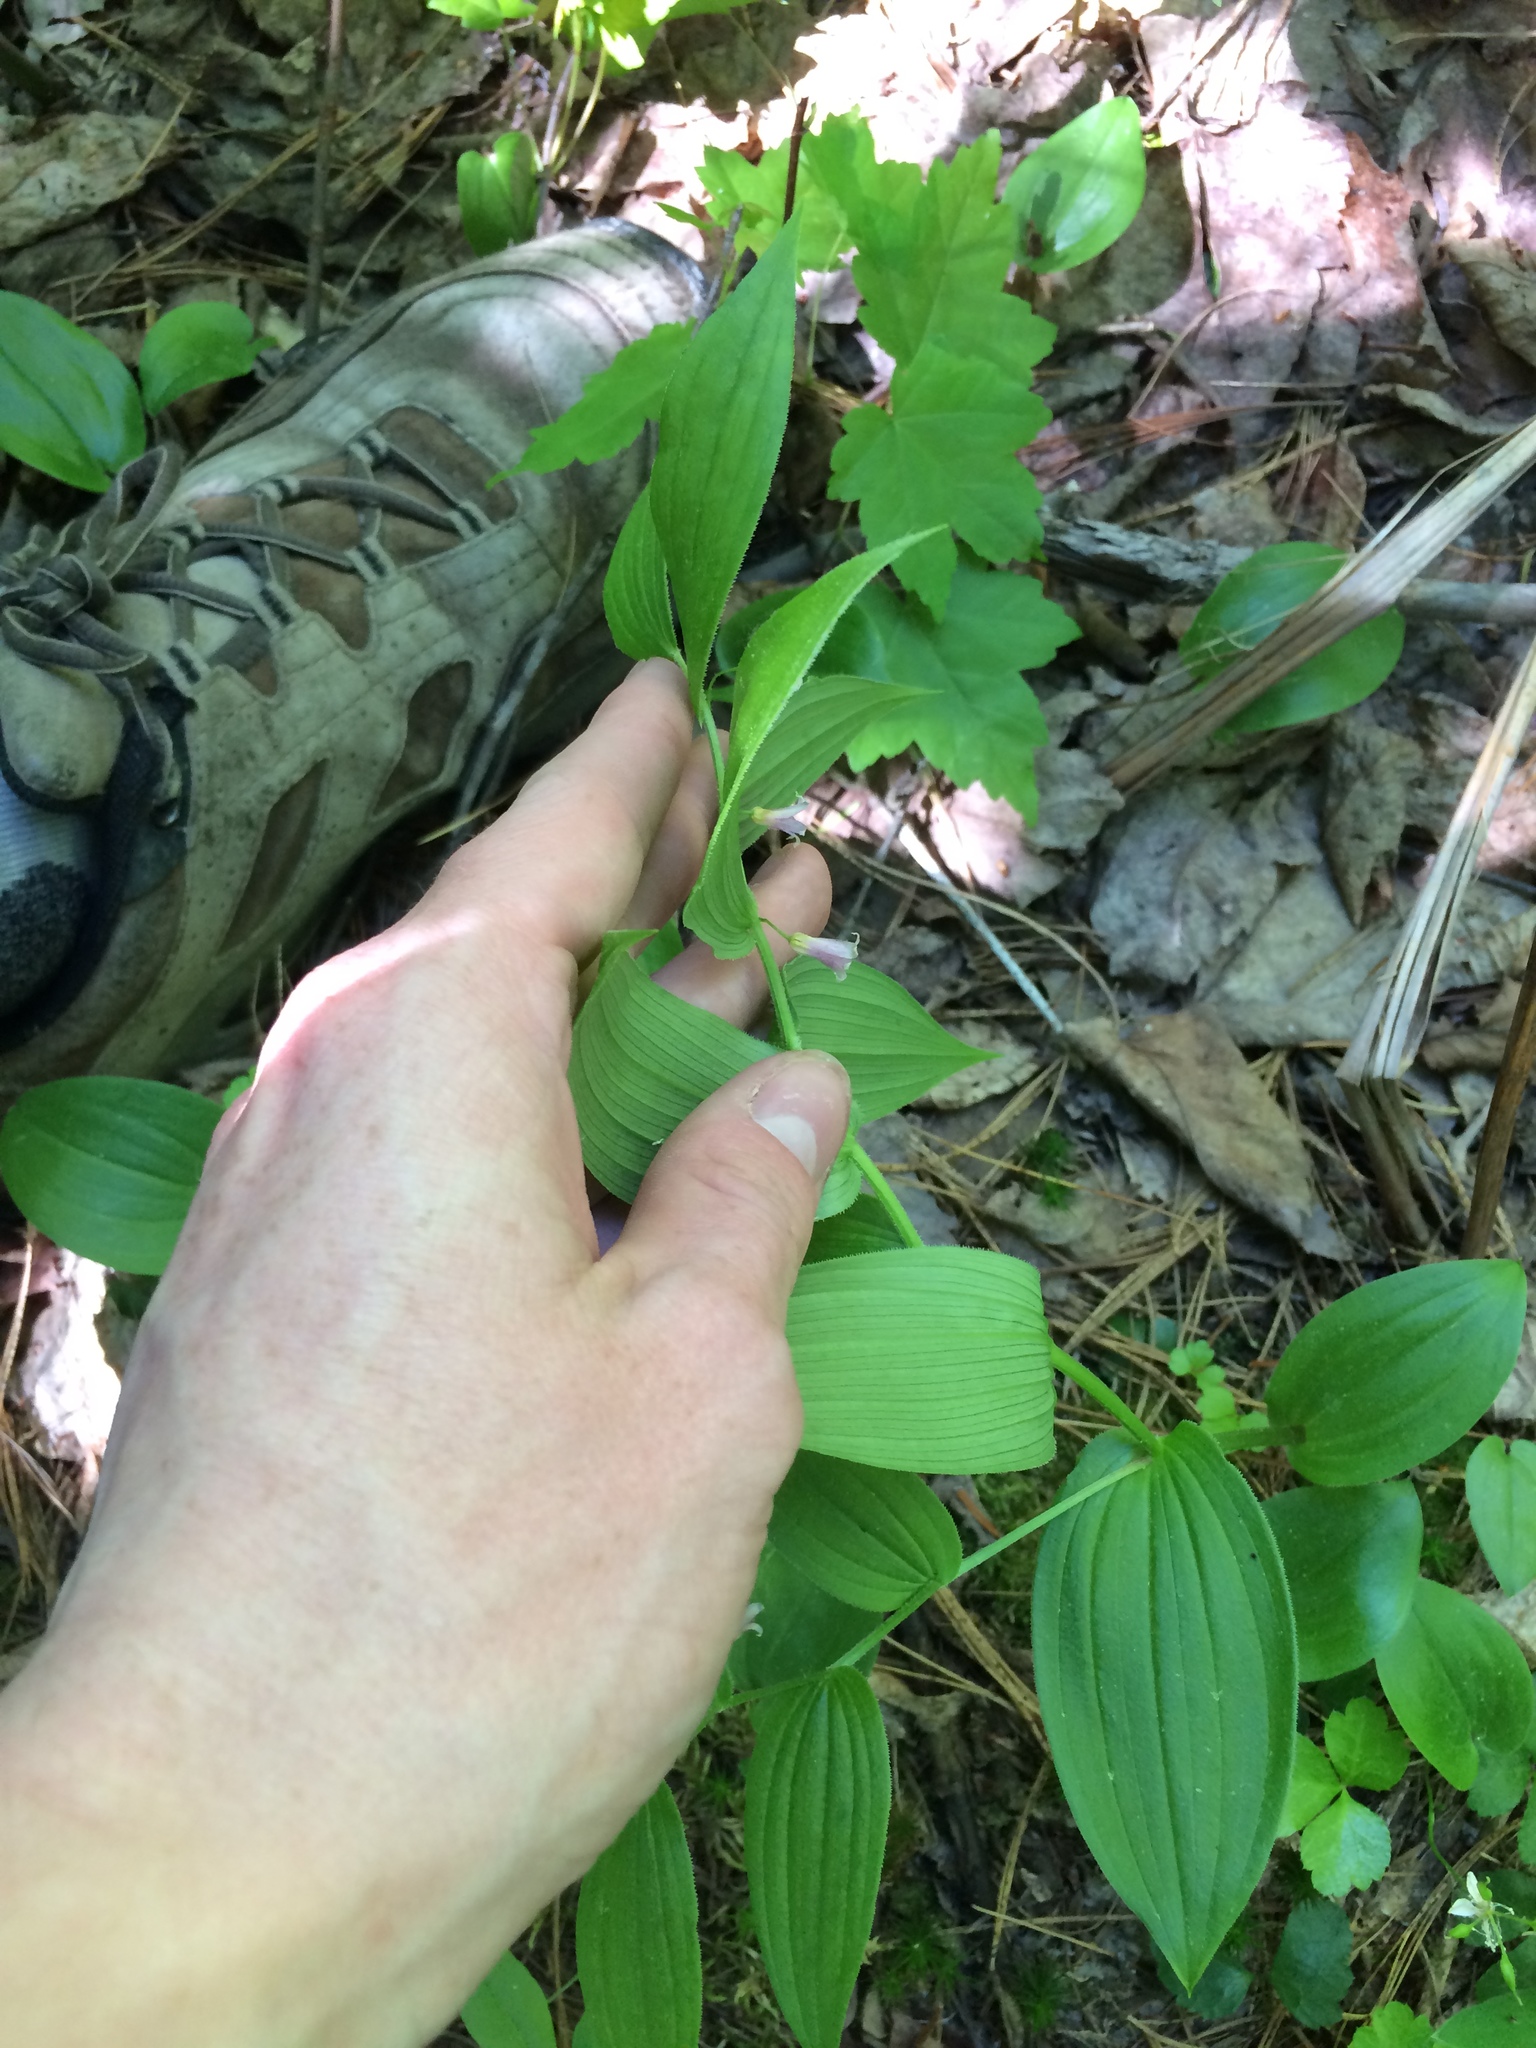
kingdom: Plantae
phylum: Tracheophyta
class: Liliopsida
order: Liliales
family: Liliaceae
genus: Streptopus
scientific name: Streptopus lanceolatus
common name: Rose mandarin
